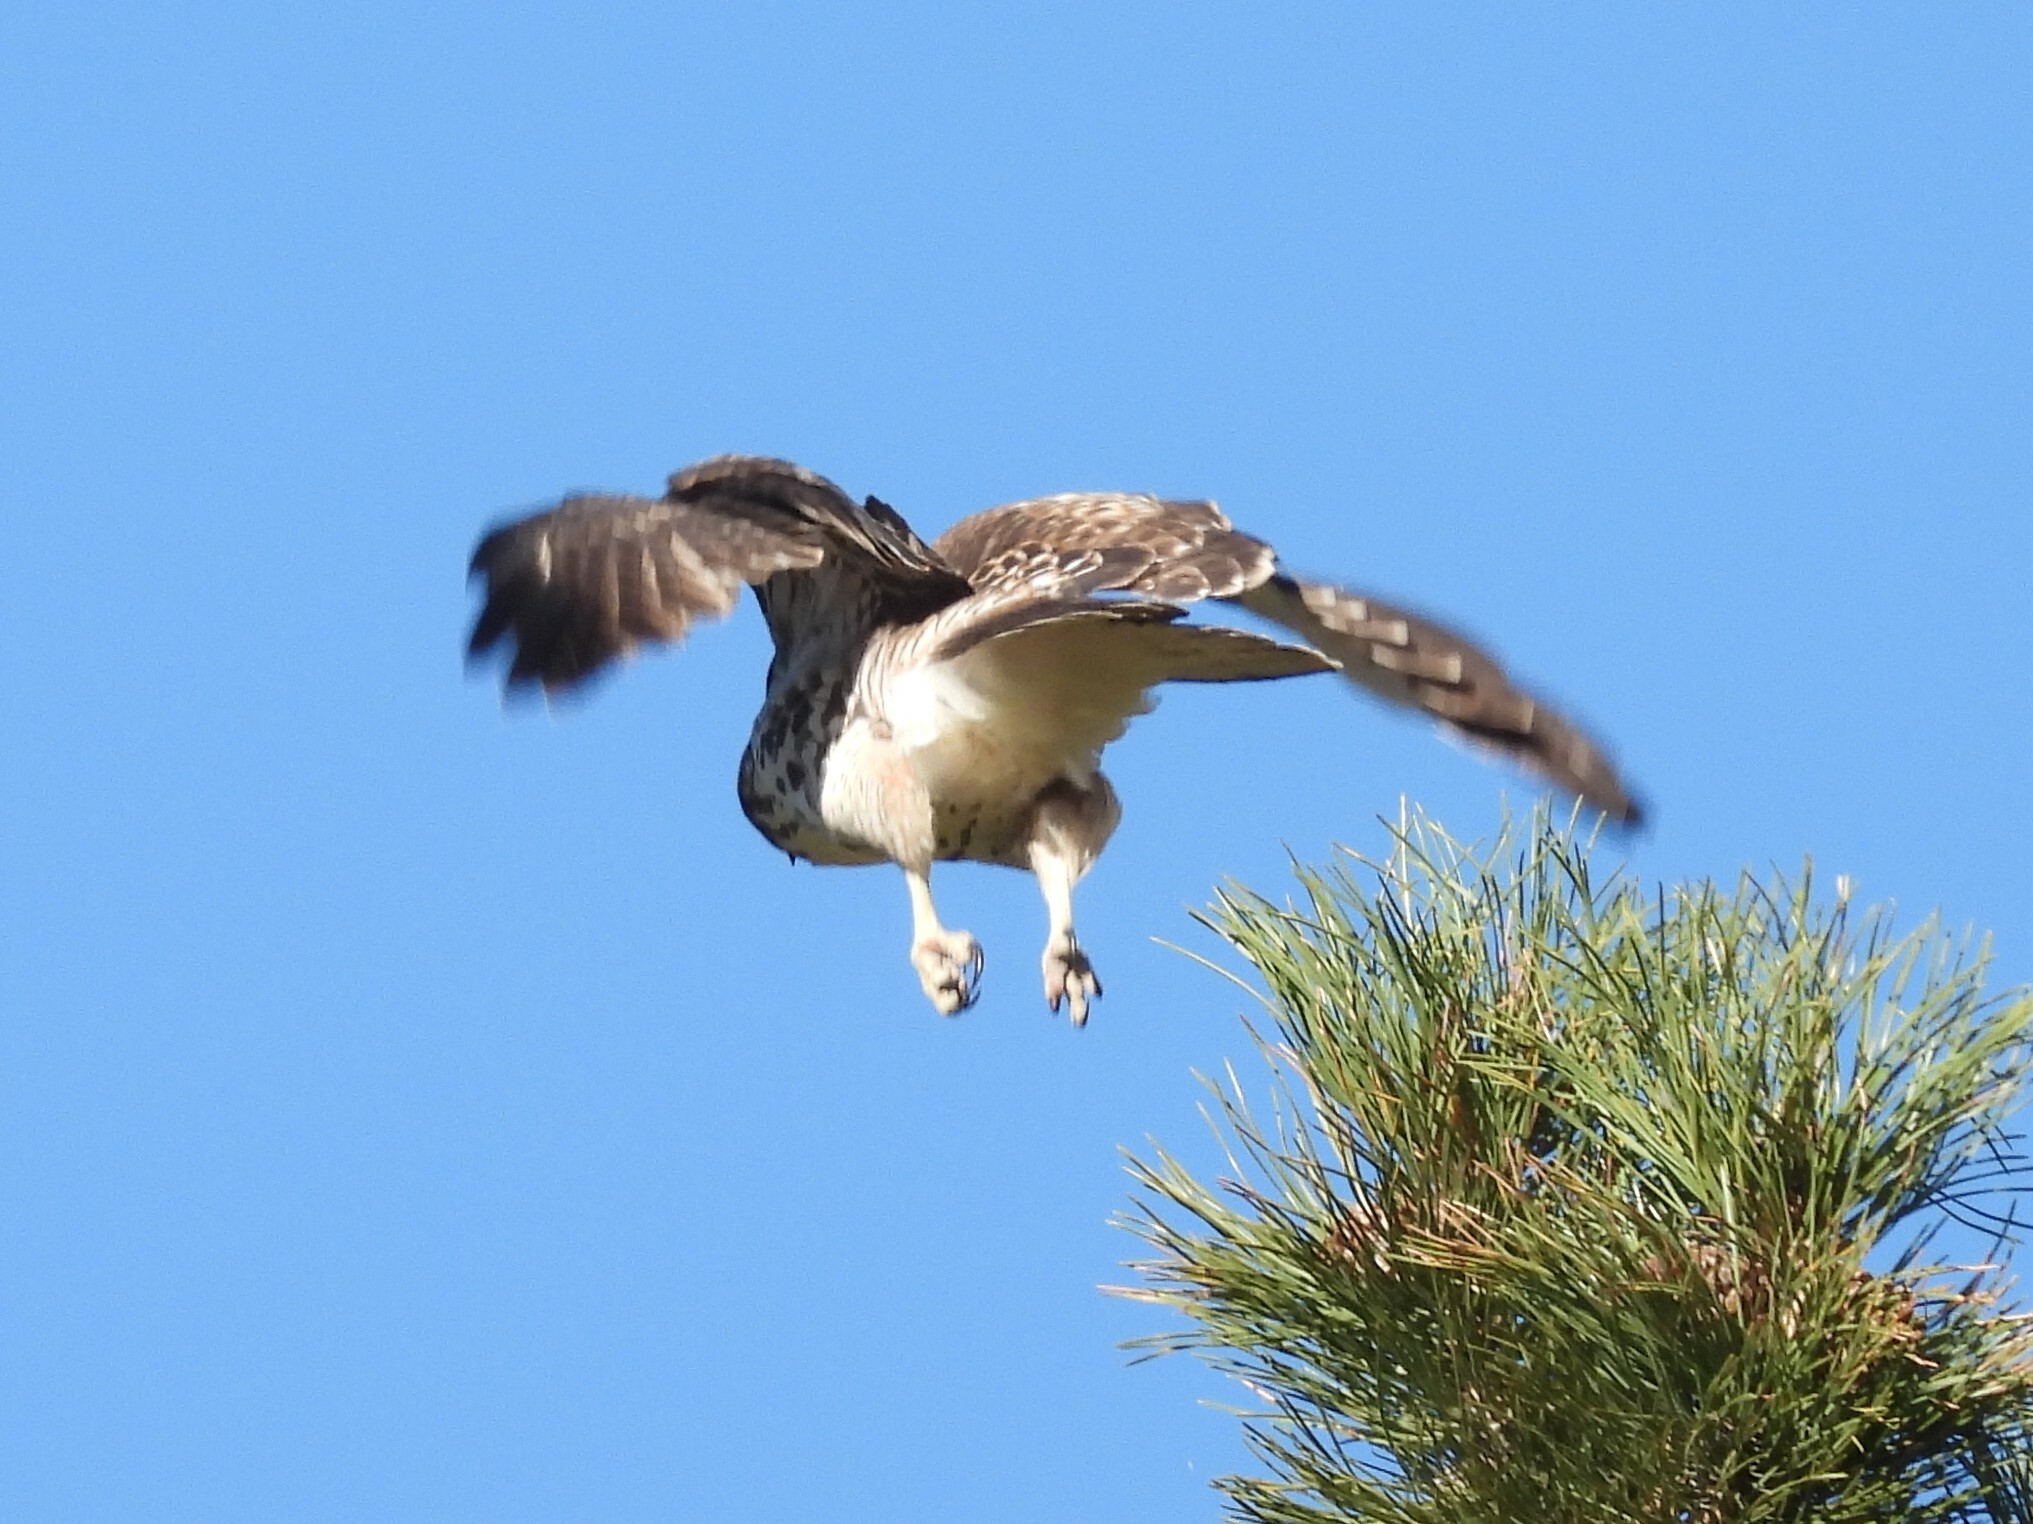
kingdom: Animalia
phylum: Chordata
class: Aves
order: Accipitriformes
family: Accipitridae
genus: Buteo
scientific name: Buteo jamaicensis
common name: Red-tailed hawk
